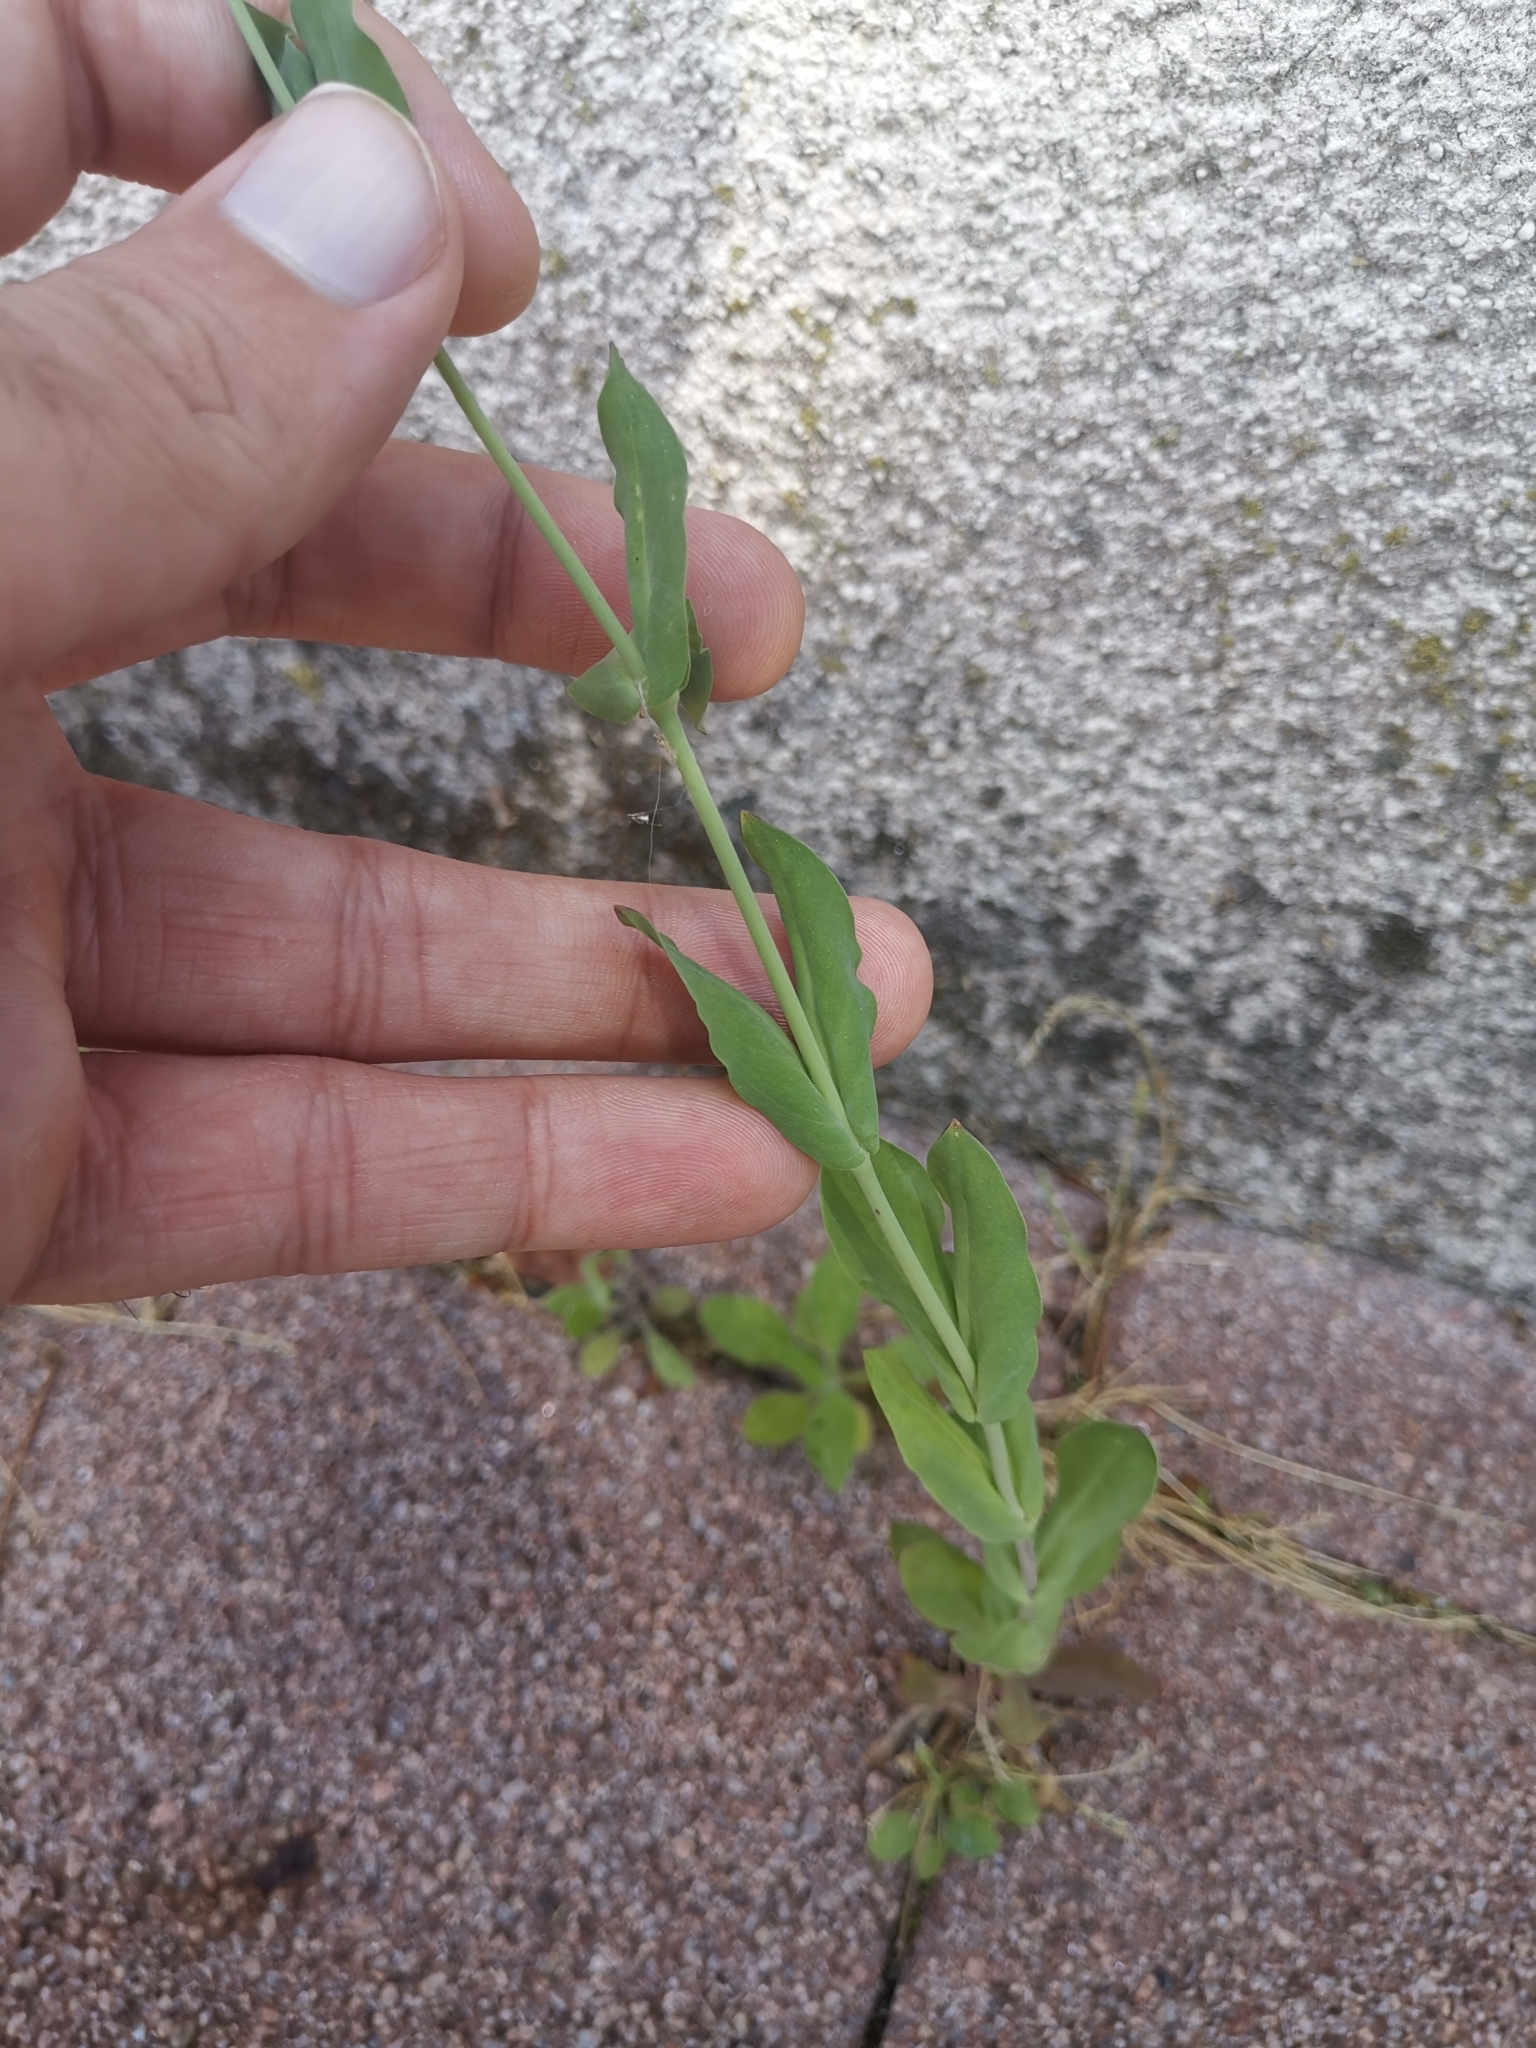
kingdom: Plantae
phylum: Tracheophyta
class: Magnoliopsida
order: Caryophyllales
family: Caryophyllaceae
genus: Atocion
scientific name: Atocion armeria
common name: Sweet william catchfly
